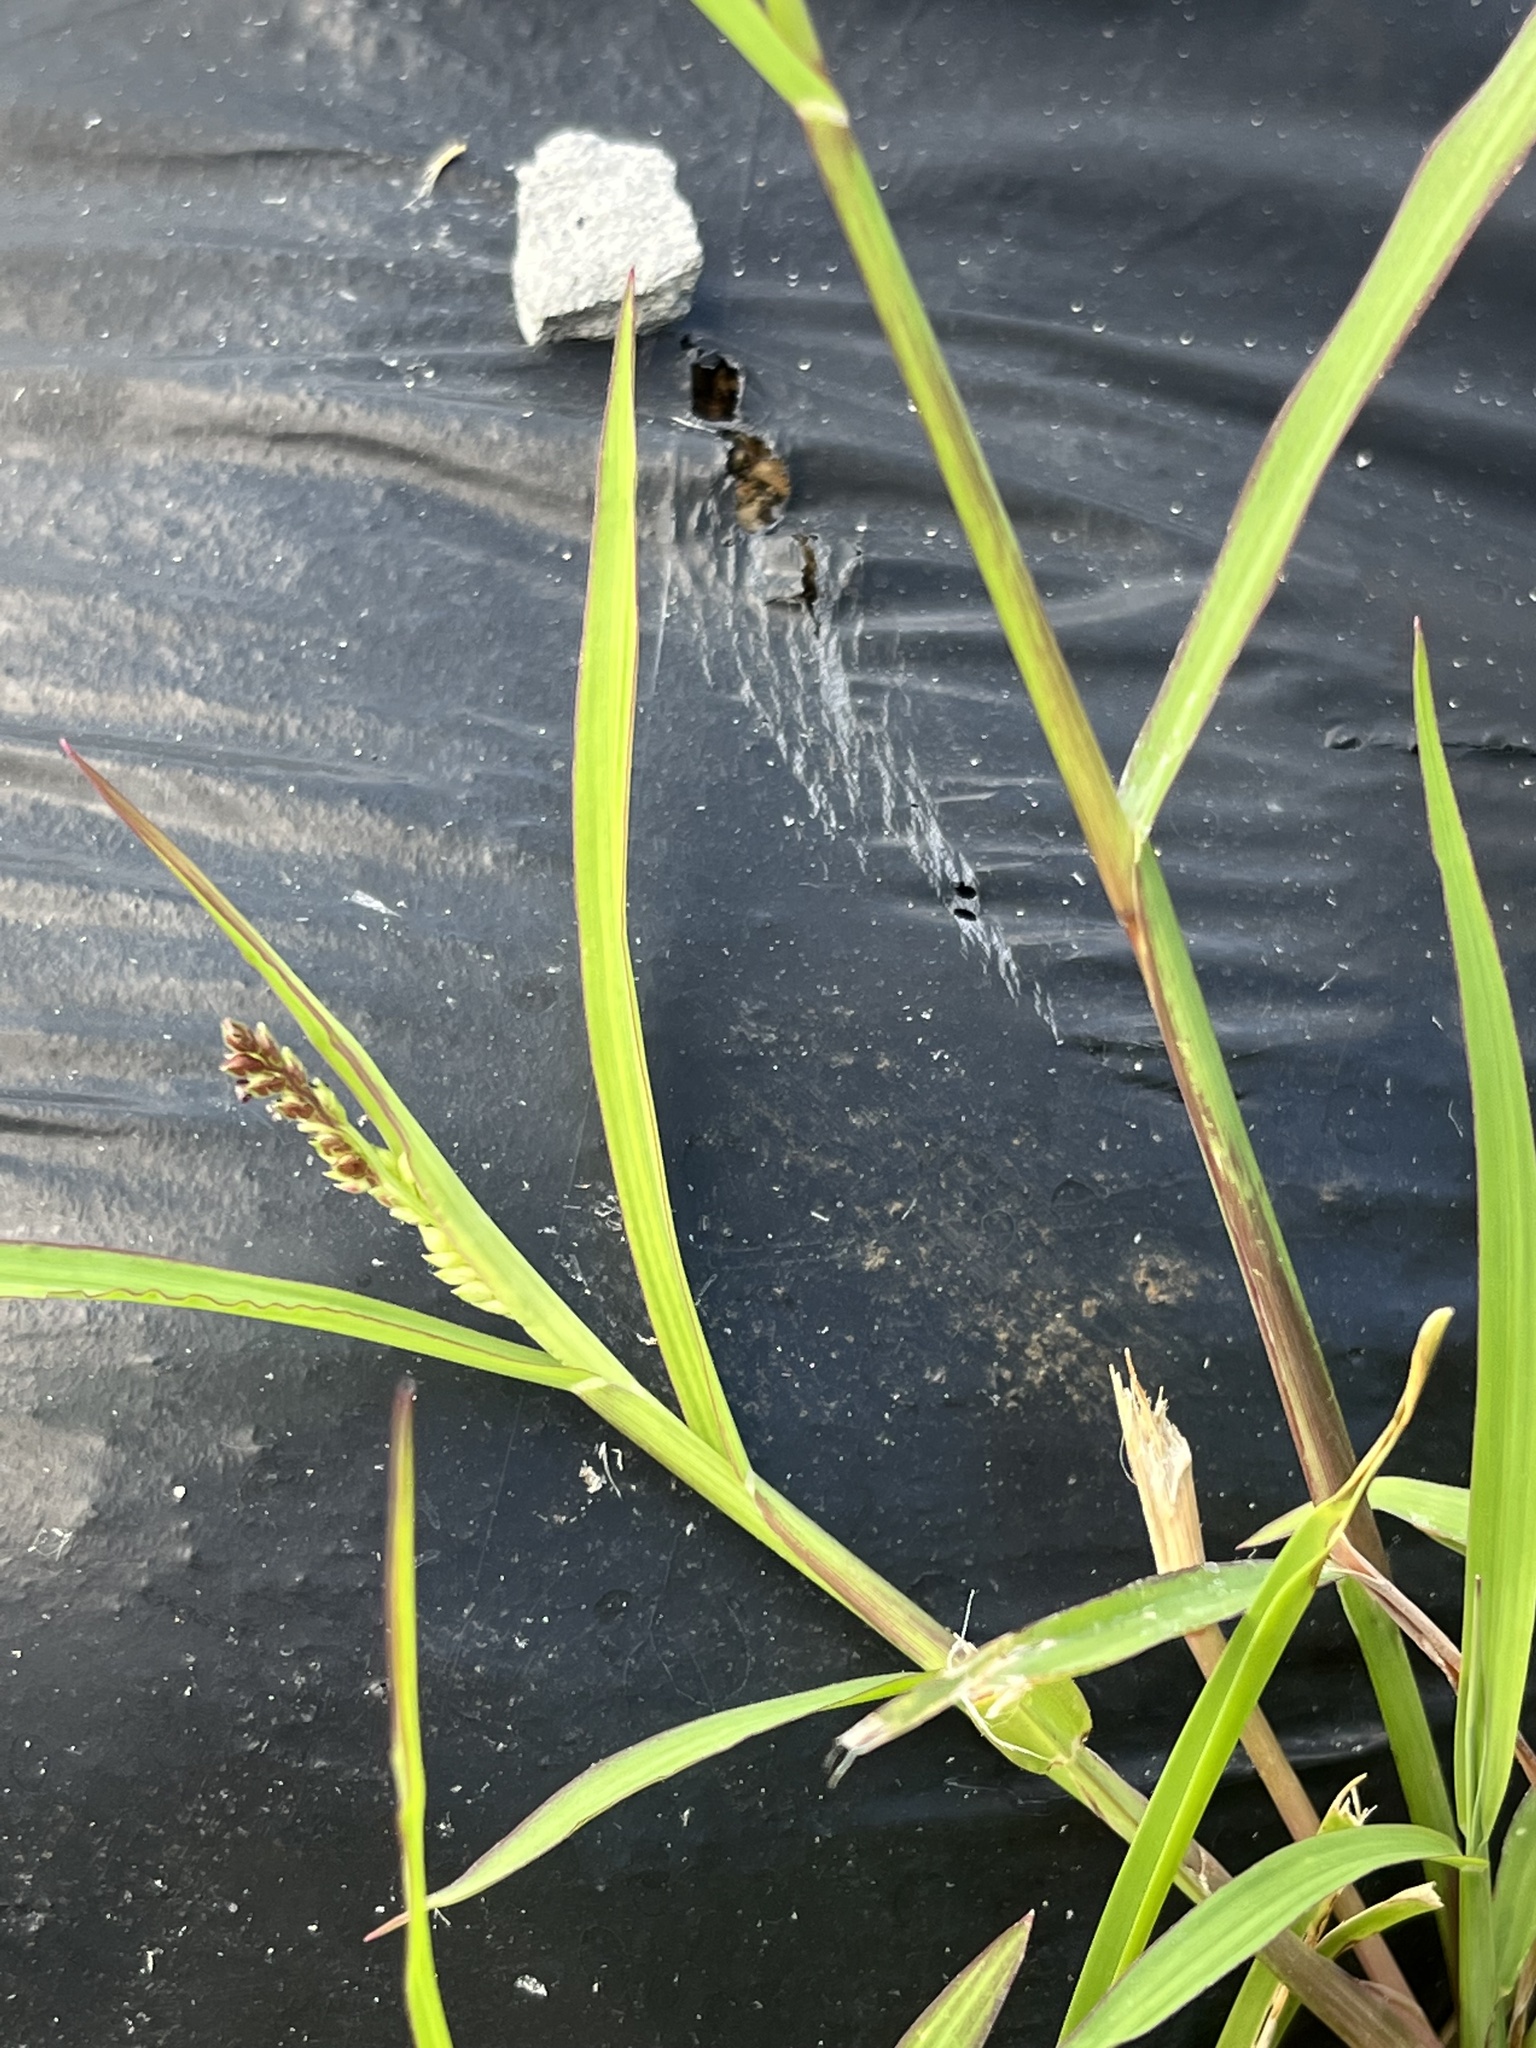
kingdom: Plantae
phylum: Tracheophyta
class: Liliopsida
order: Poales
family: Poaceae
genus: Echinochloa
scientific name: Echinochloa colonum
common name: Jungle rice
